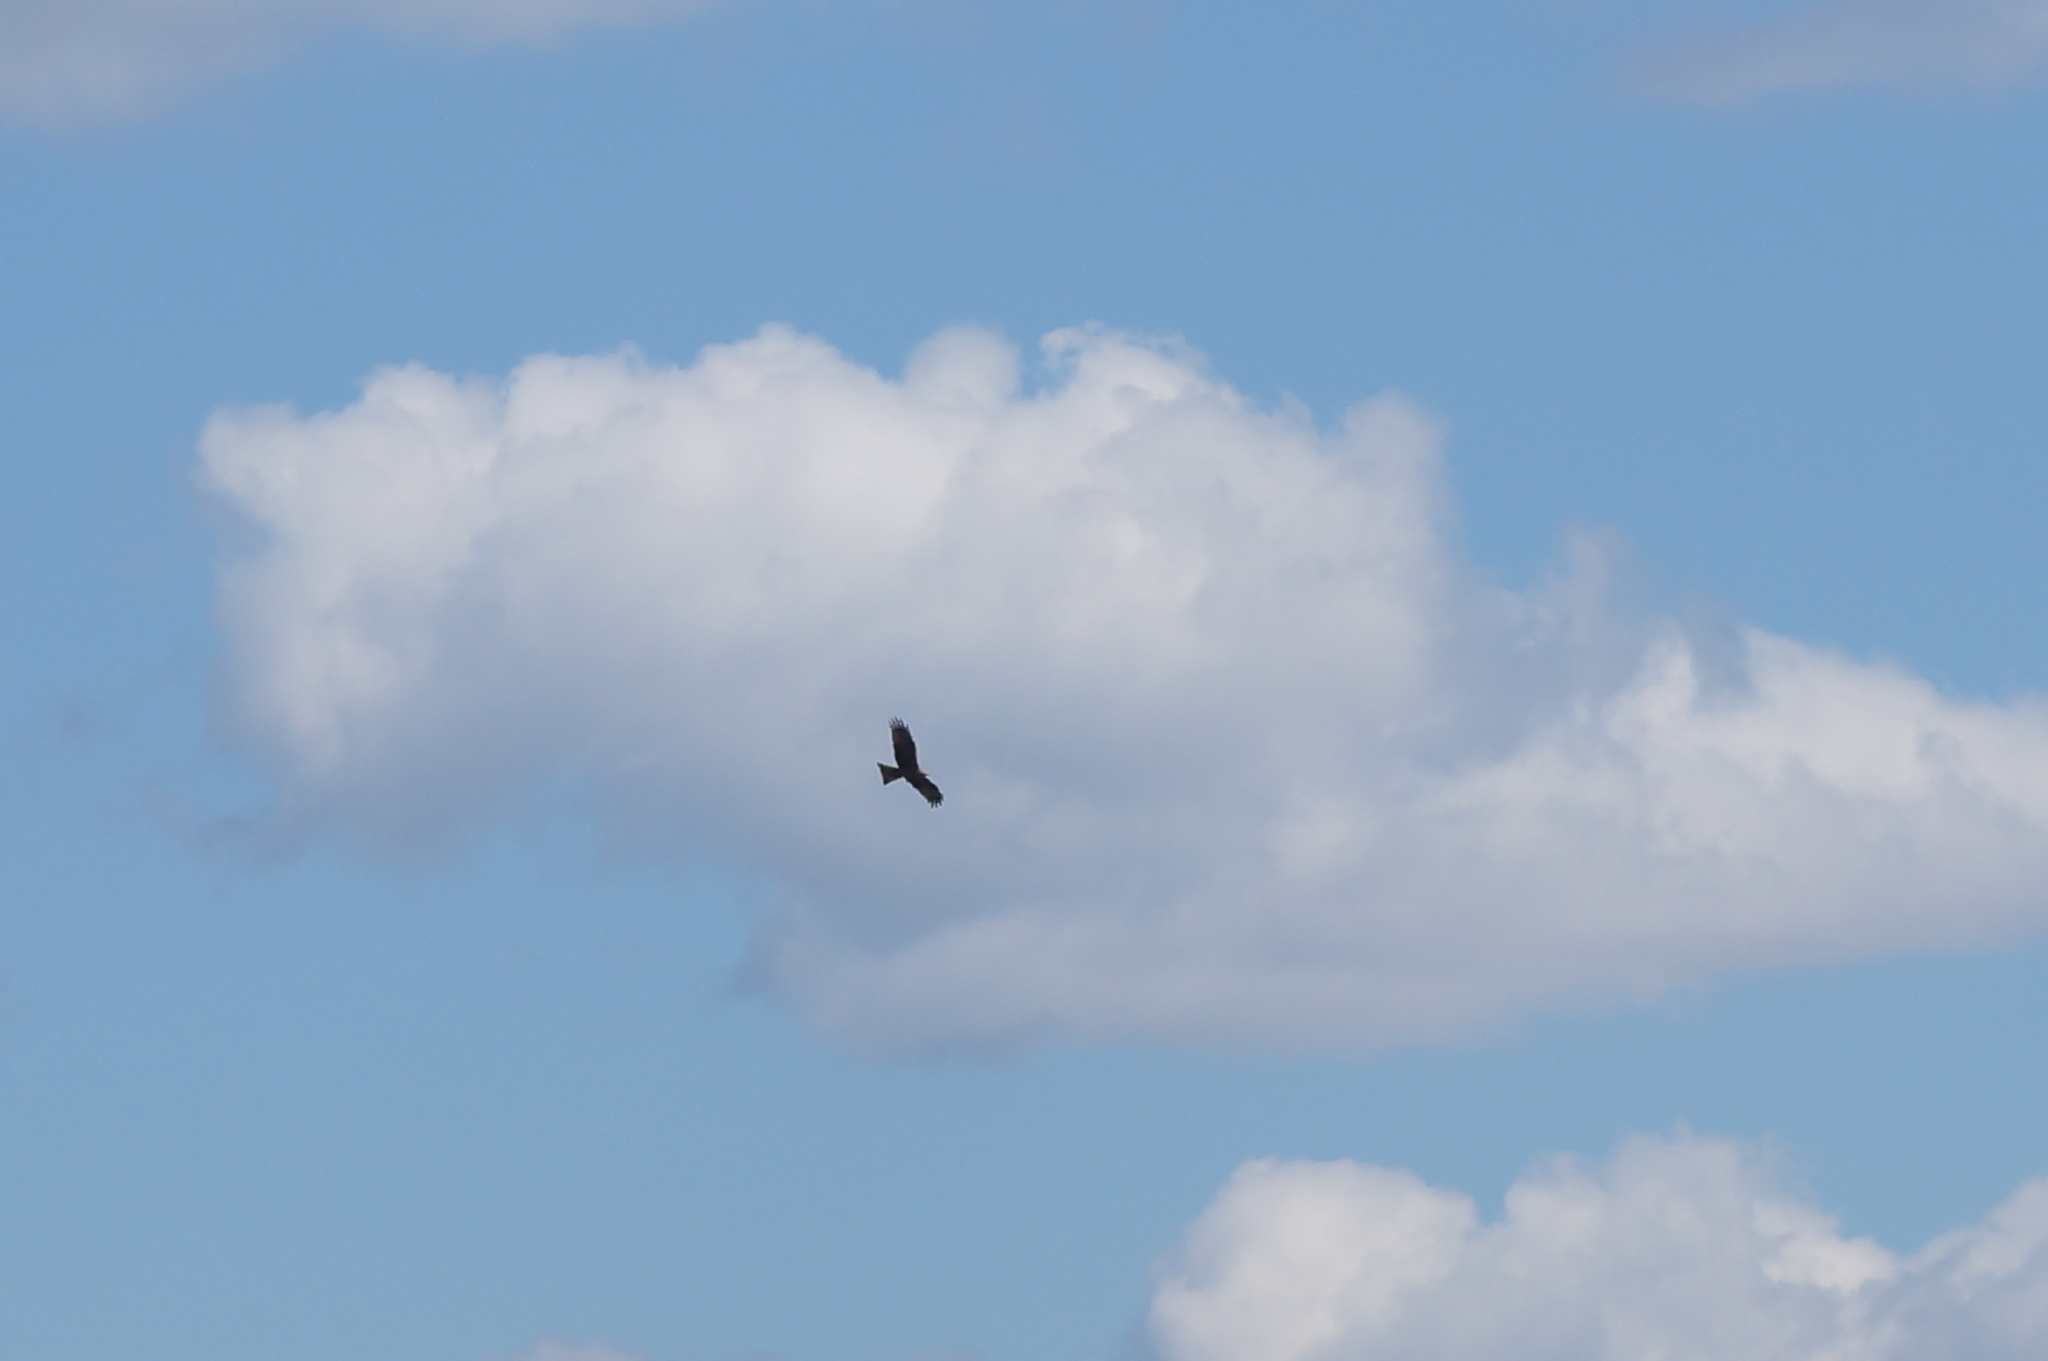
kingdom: Animalia
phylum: Chordata
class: Aves
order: Accipitriformes
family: Accipitridae
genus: Milvus
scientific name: Milvus migrans
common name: Black kite
